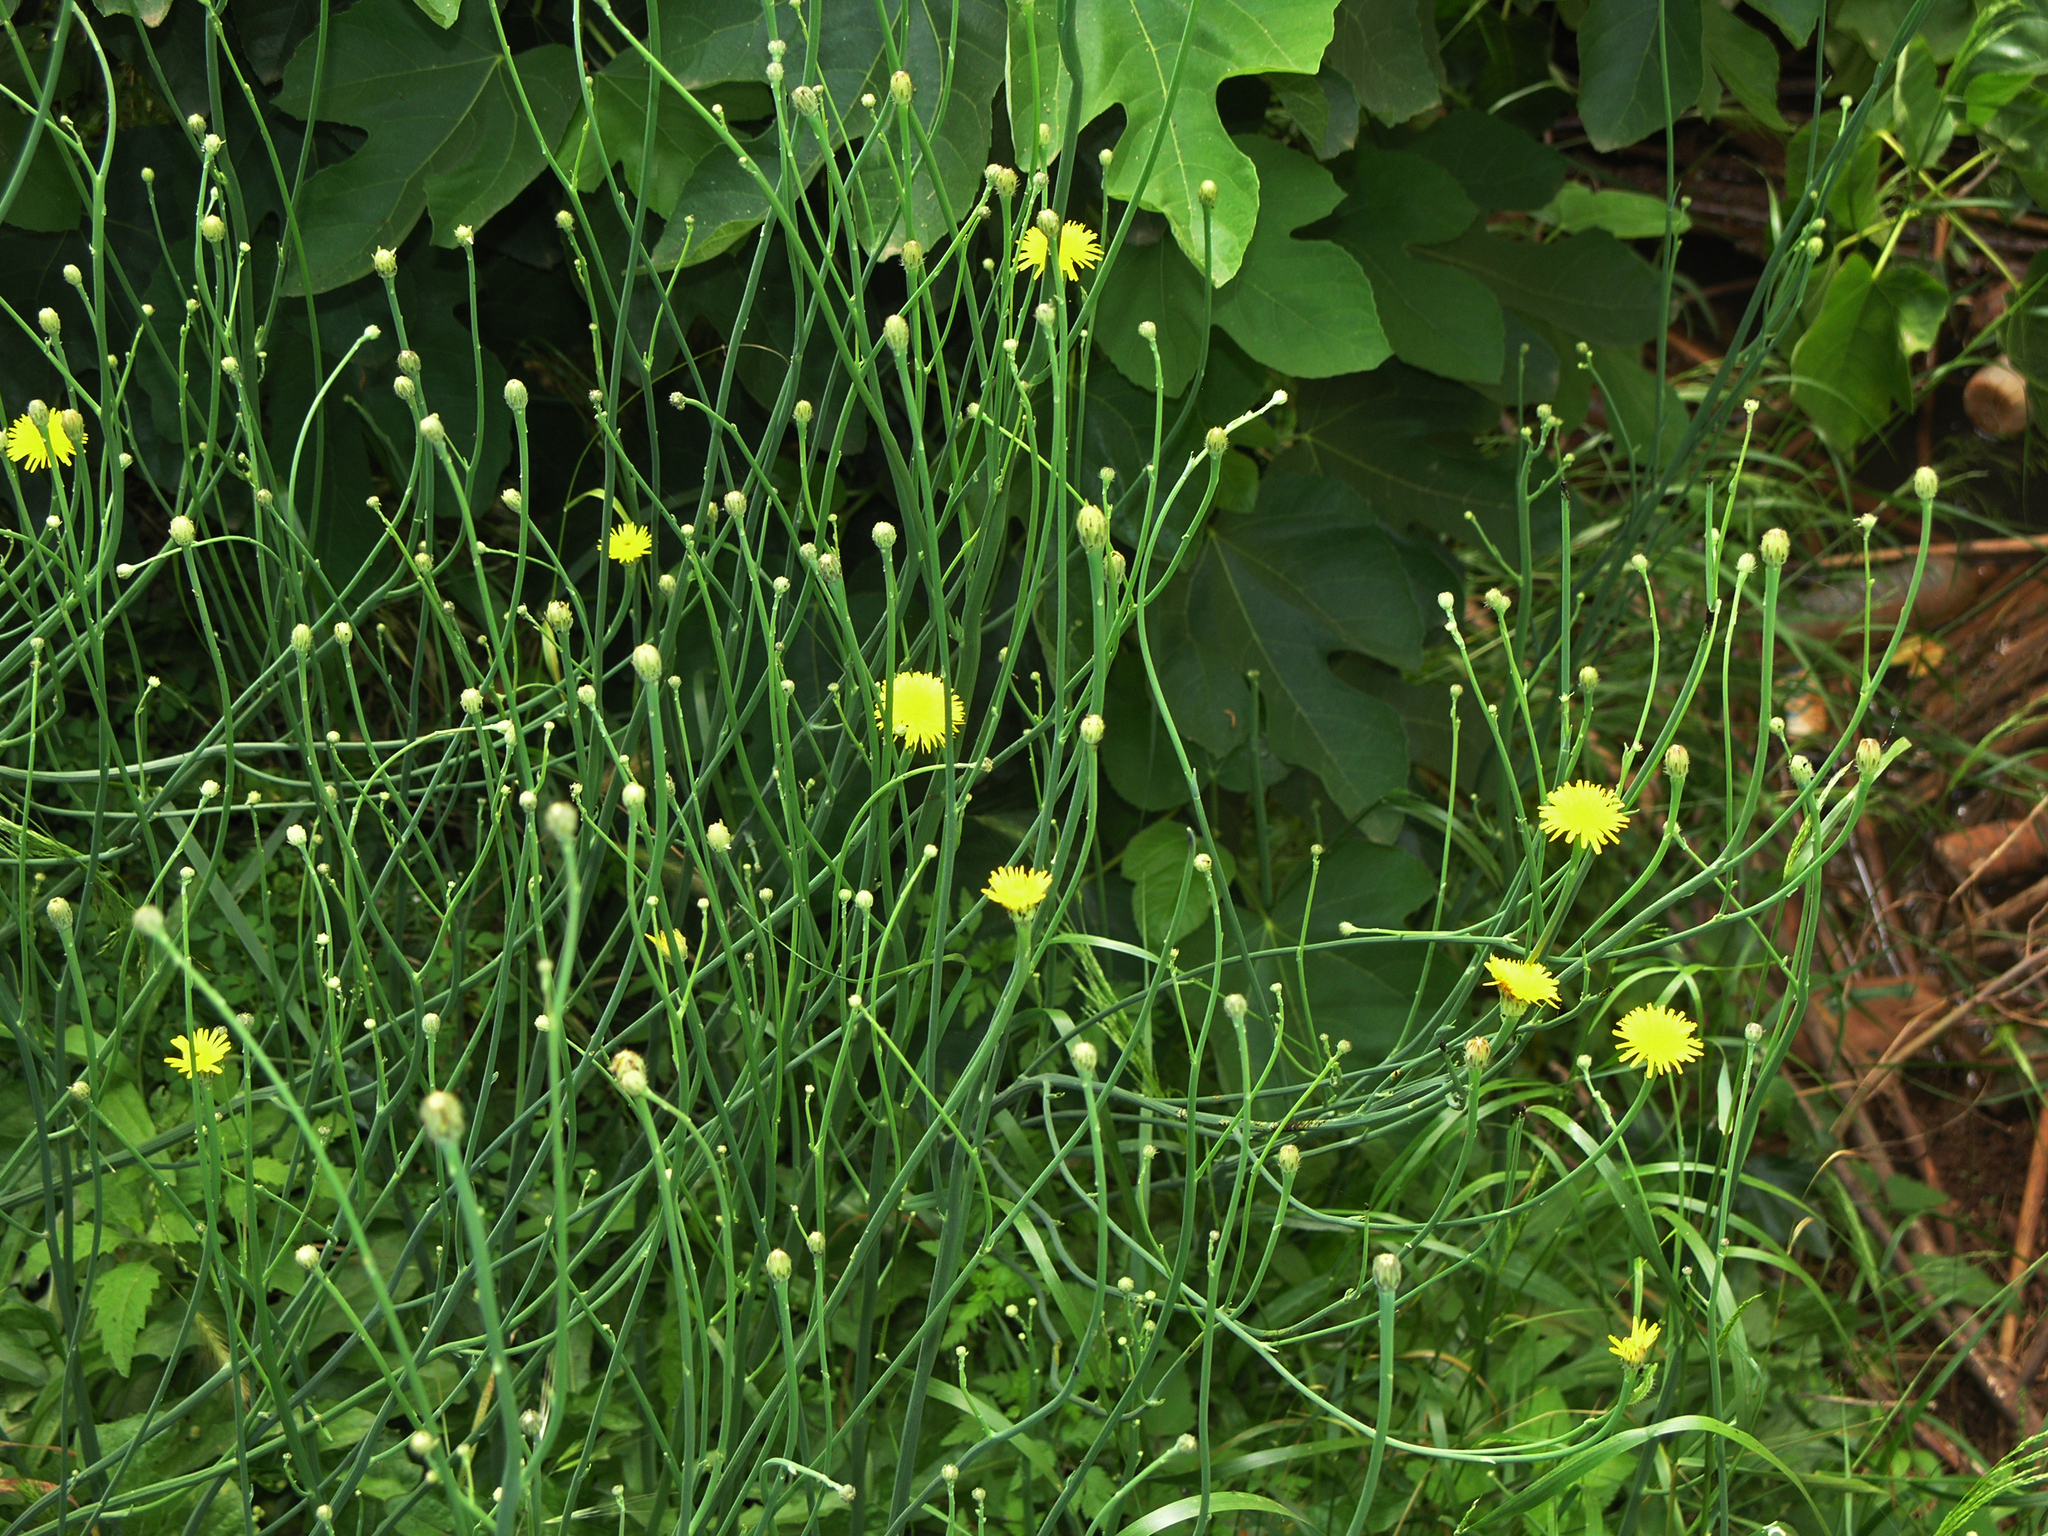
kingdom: Plantae
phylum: Tracheophyta
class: Magnoliopsida
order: Asterales
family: Asteraceae
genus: Hypochaeris
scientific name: Hypochaeris radicata
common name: Flatweed
